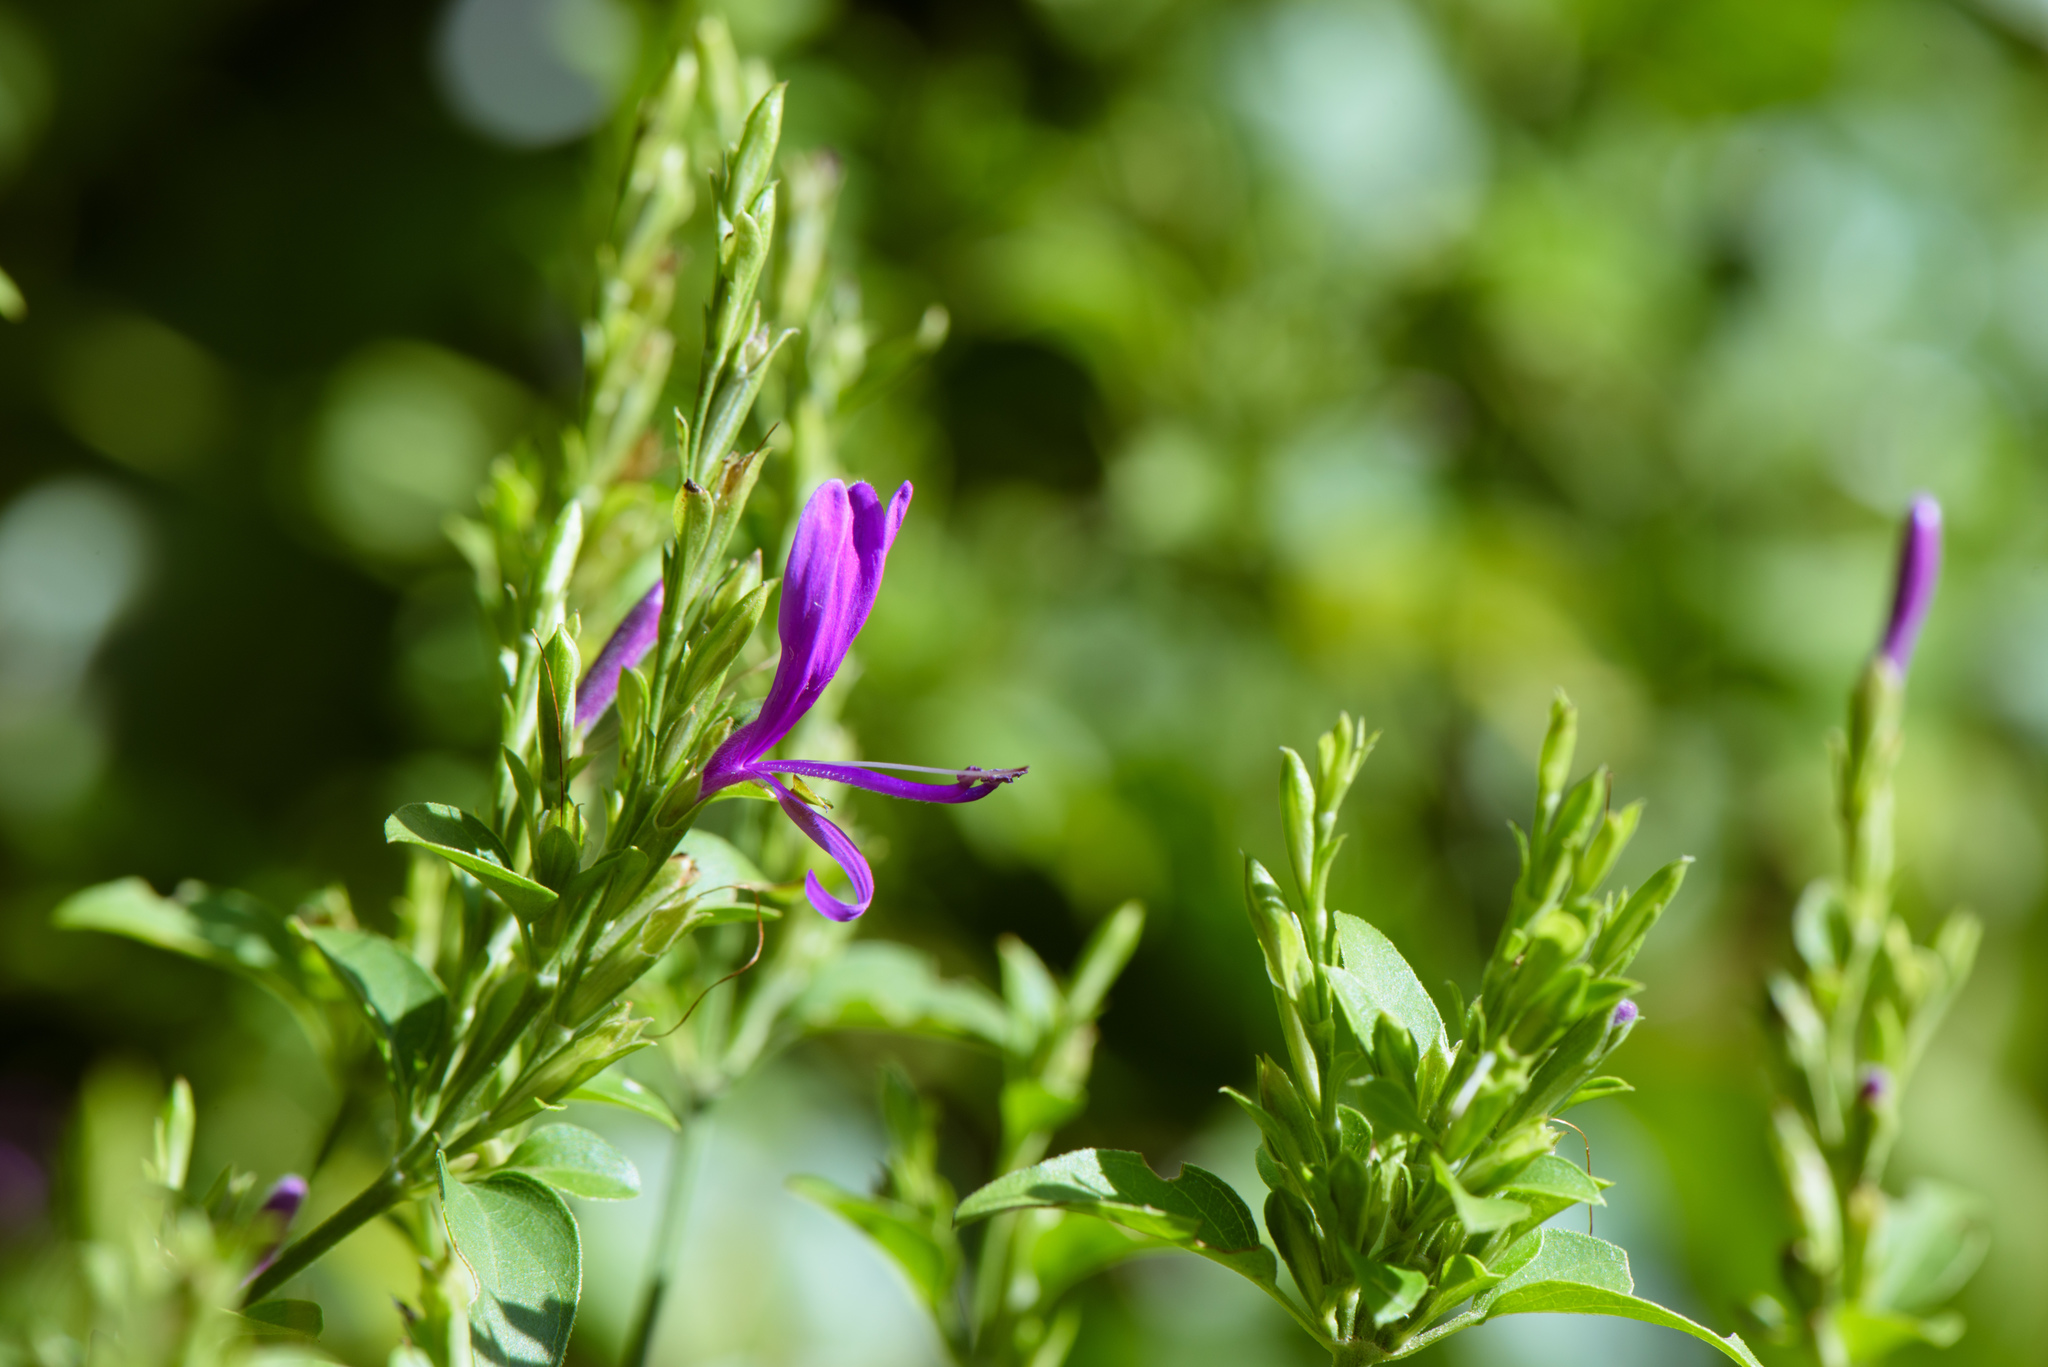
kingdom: Plantae
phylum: Tracheophyta
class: Magnoliopsida
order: Lamiales
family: Acanthaceae
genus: Hypoestes
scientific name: Hypoestes purpurea
